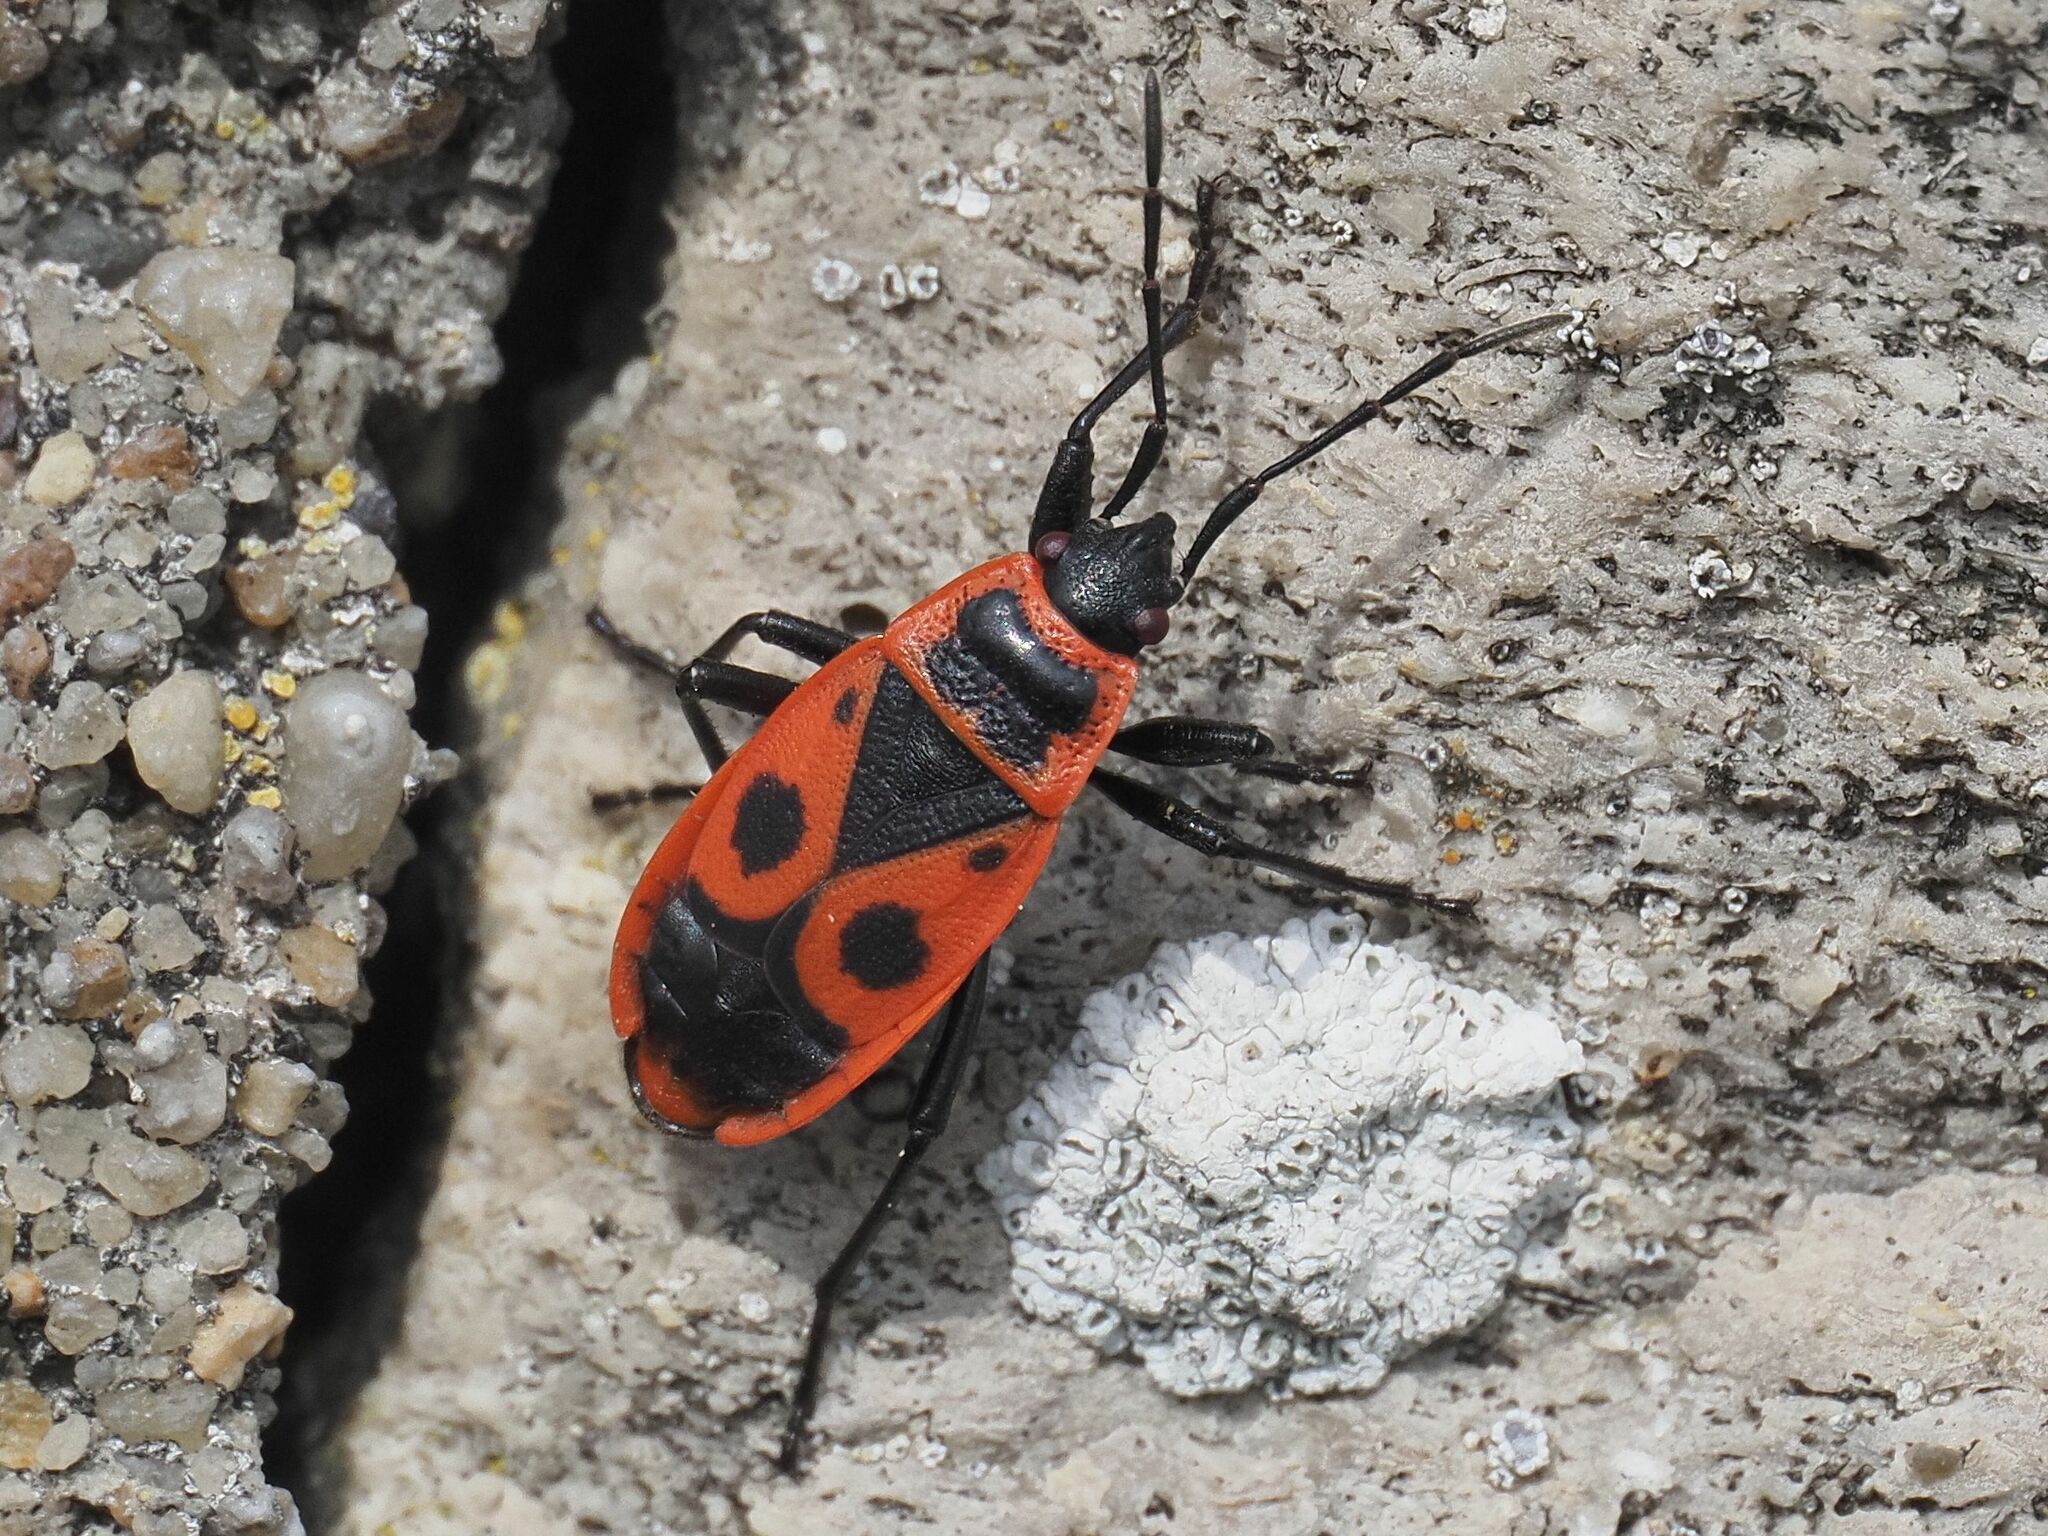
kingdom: Animalia
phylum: Arthropoda
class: Insecta
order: Hemiptera
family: Pyrrhocoridae
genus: Pyrrhocoris
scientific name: Pyrrhocoris apterus
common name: Firebug
